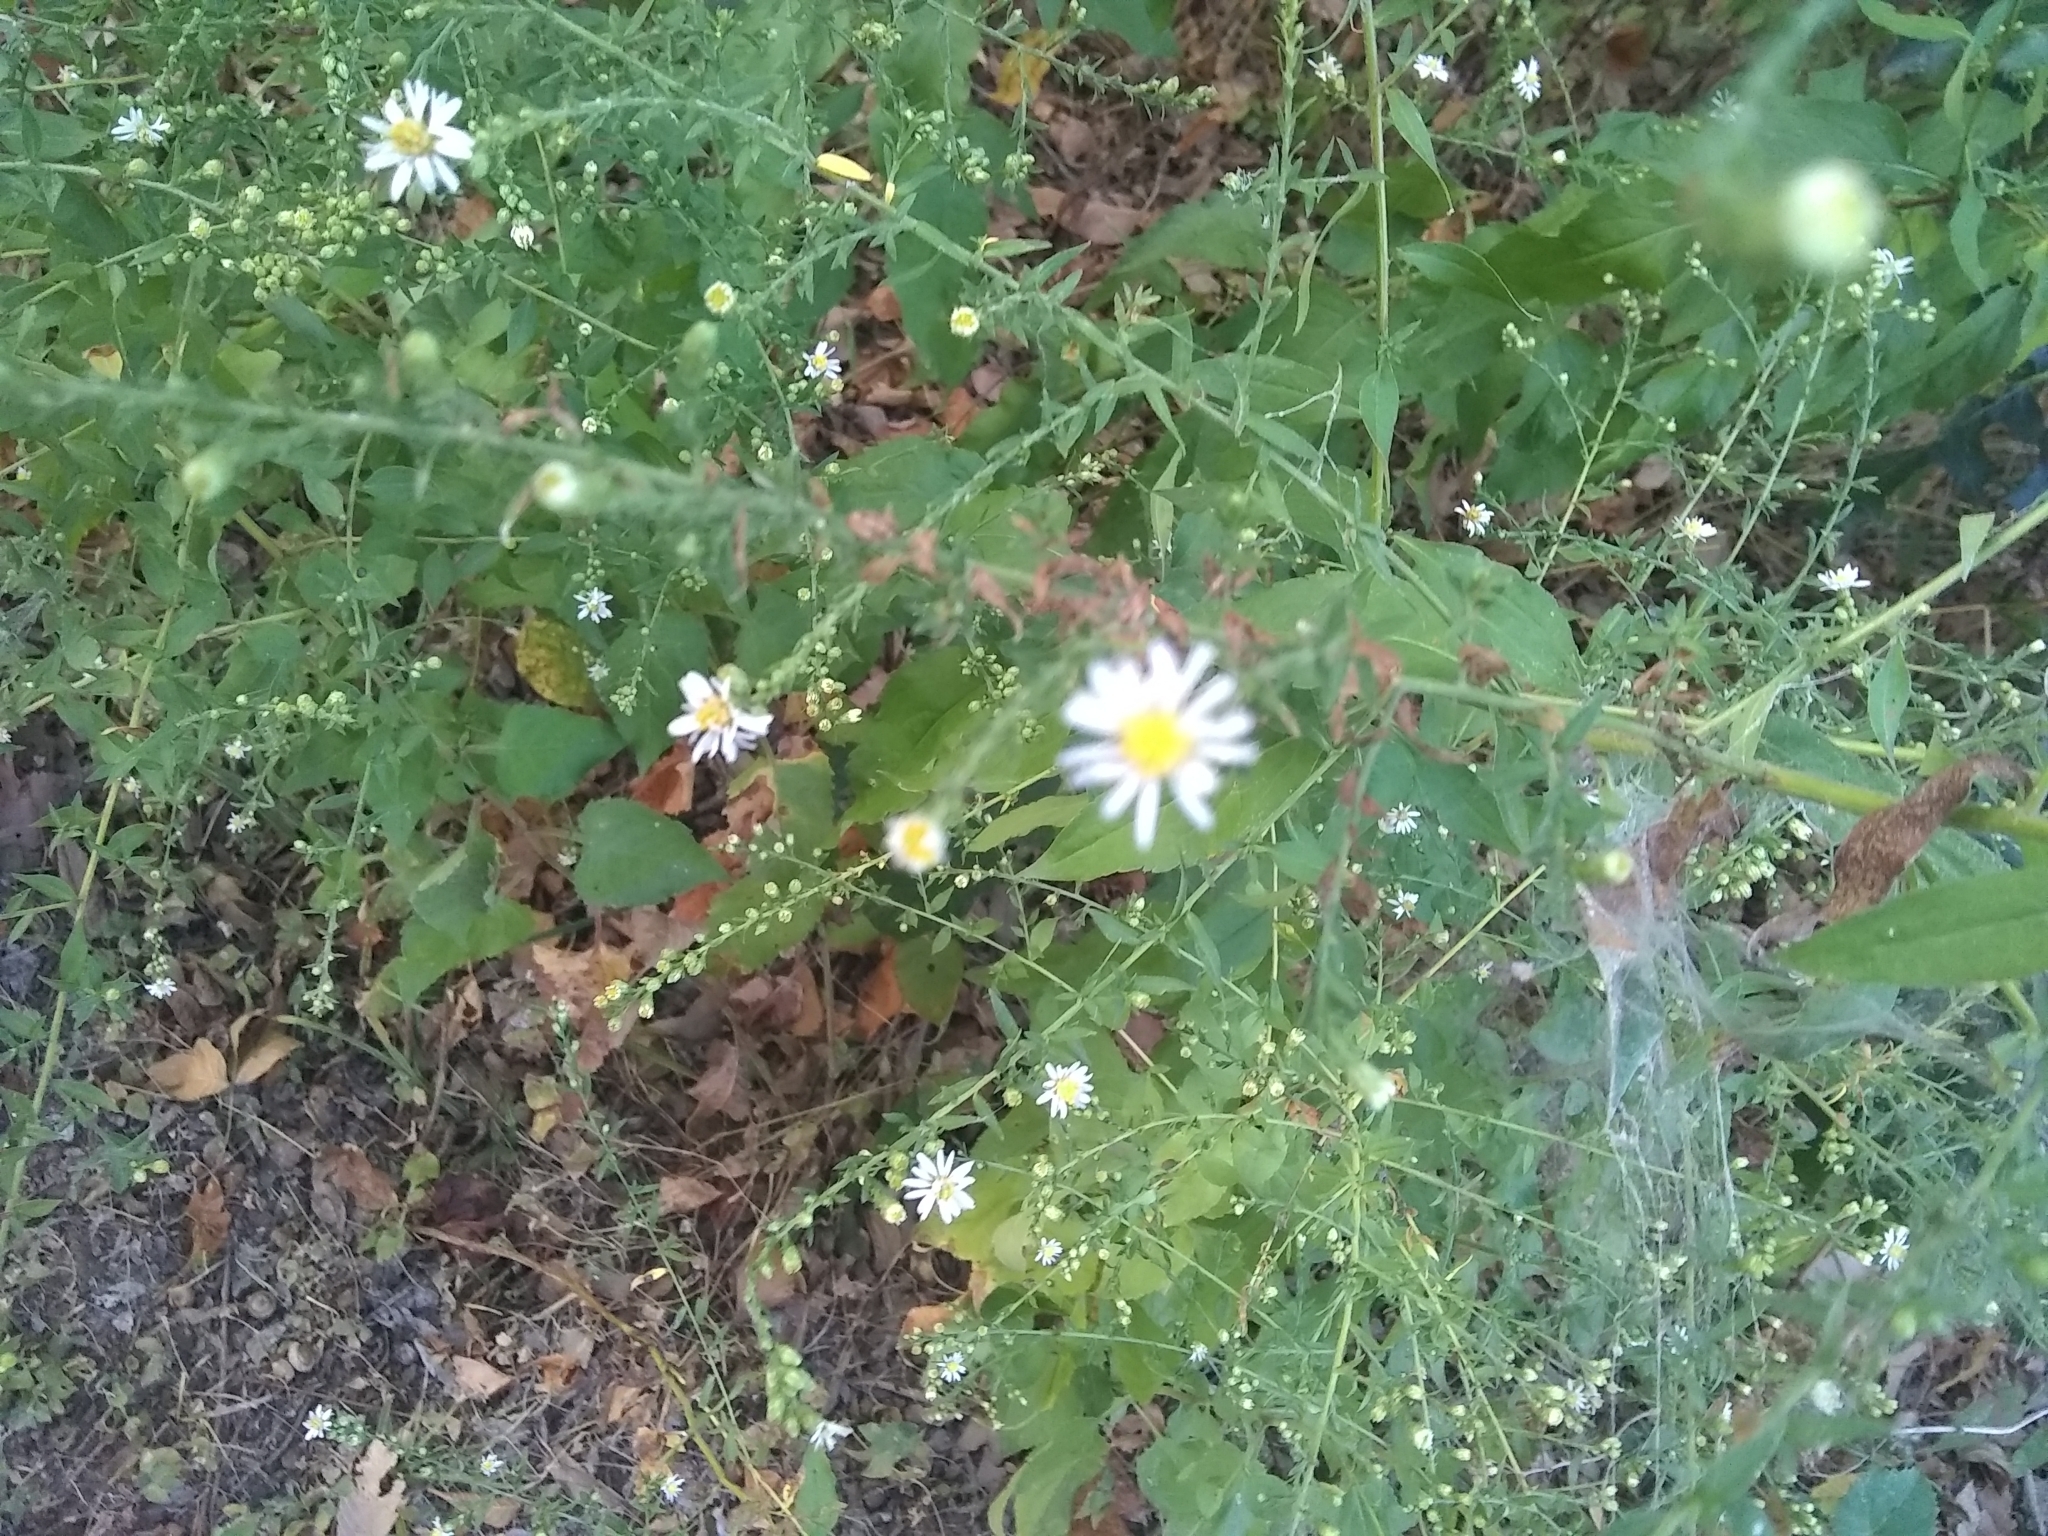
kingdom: Plantae
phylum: Tracheophyta
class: Magnoliopsida
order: Asterales
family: Asteraceae
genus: Symphyotrichum
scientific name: Symphyotrichum divaricatum
